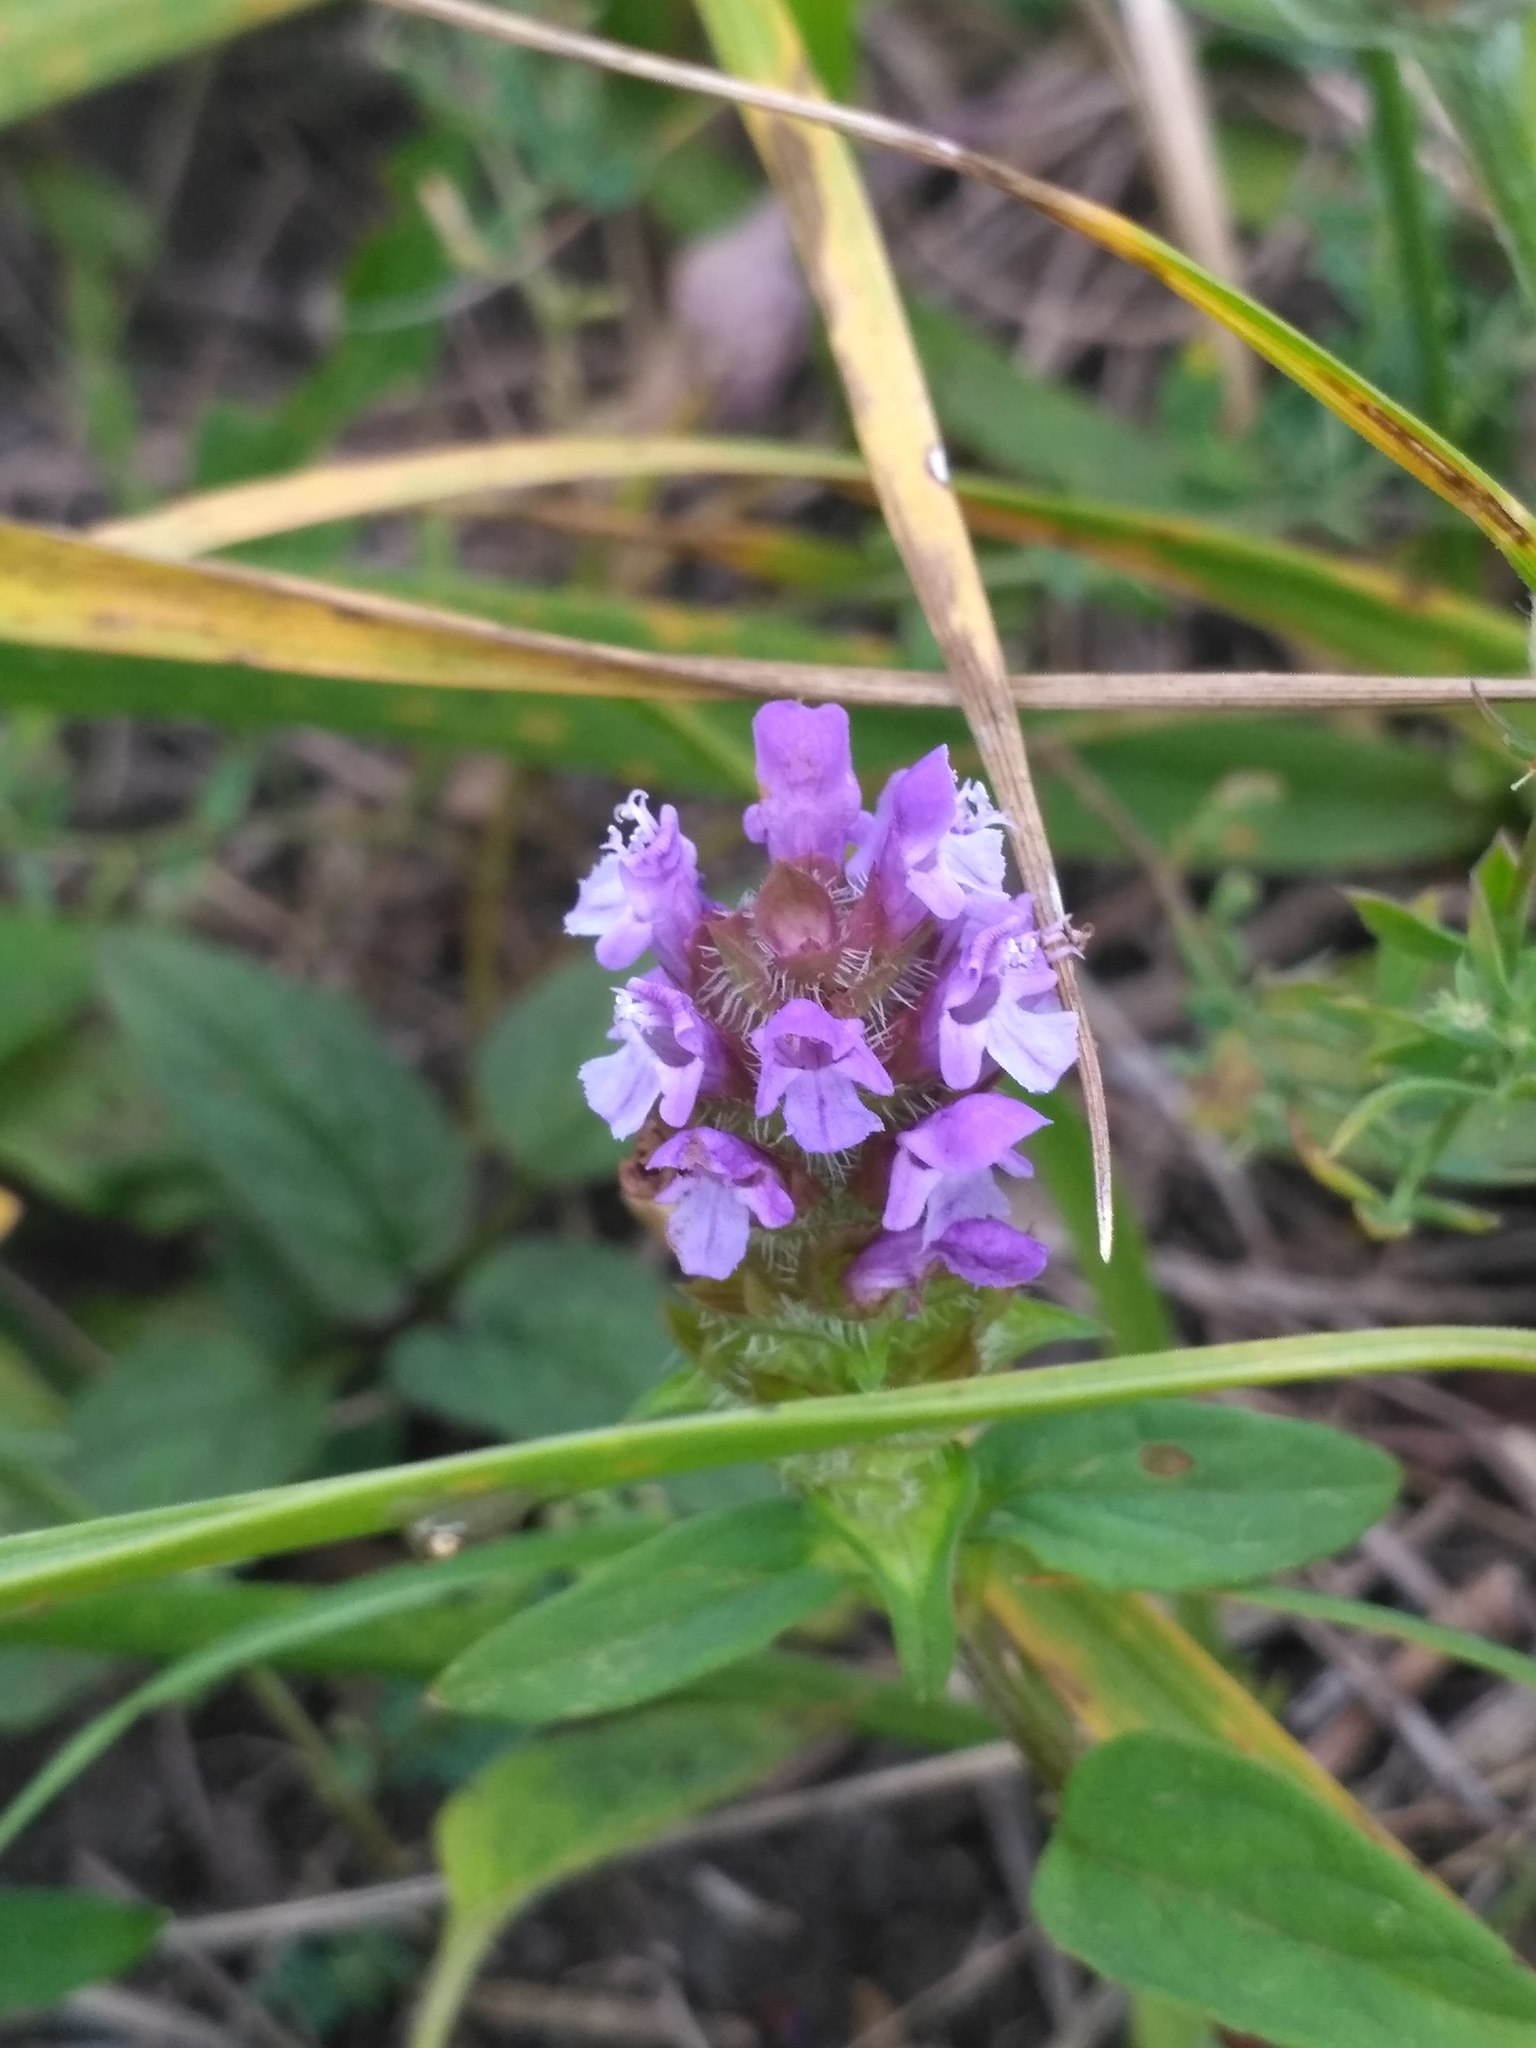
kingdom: Plantae
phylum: Tracheophyta
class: Magnoliopsida
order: Lamiales
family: Lamiaceae
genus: Prunella
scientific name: Prunella vulgaris
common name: Heal-all
